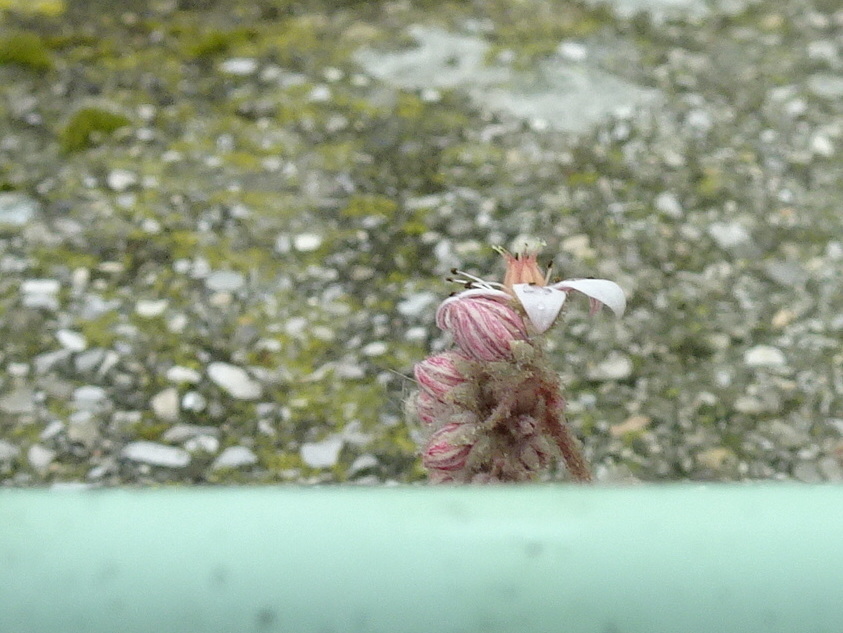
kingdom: Plantae
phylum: Tracheophyta
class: Magnoliopsida
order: Saxifragales
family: Crassulaceae
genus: Sedum
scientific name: Sedum dasyphyllum
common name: Thick-leaf stonecrop
